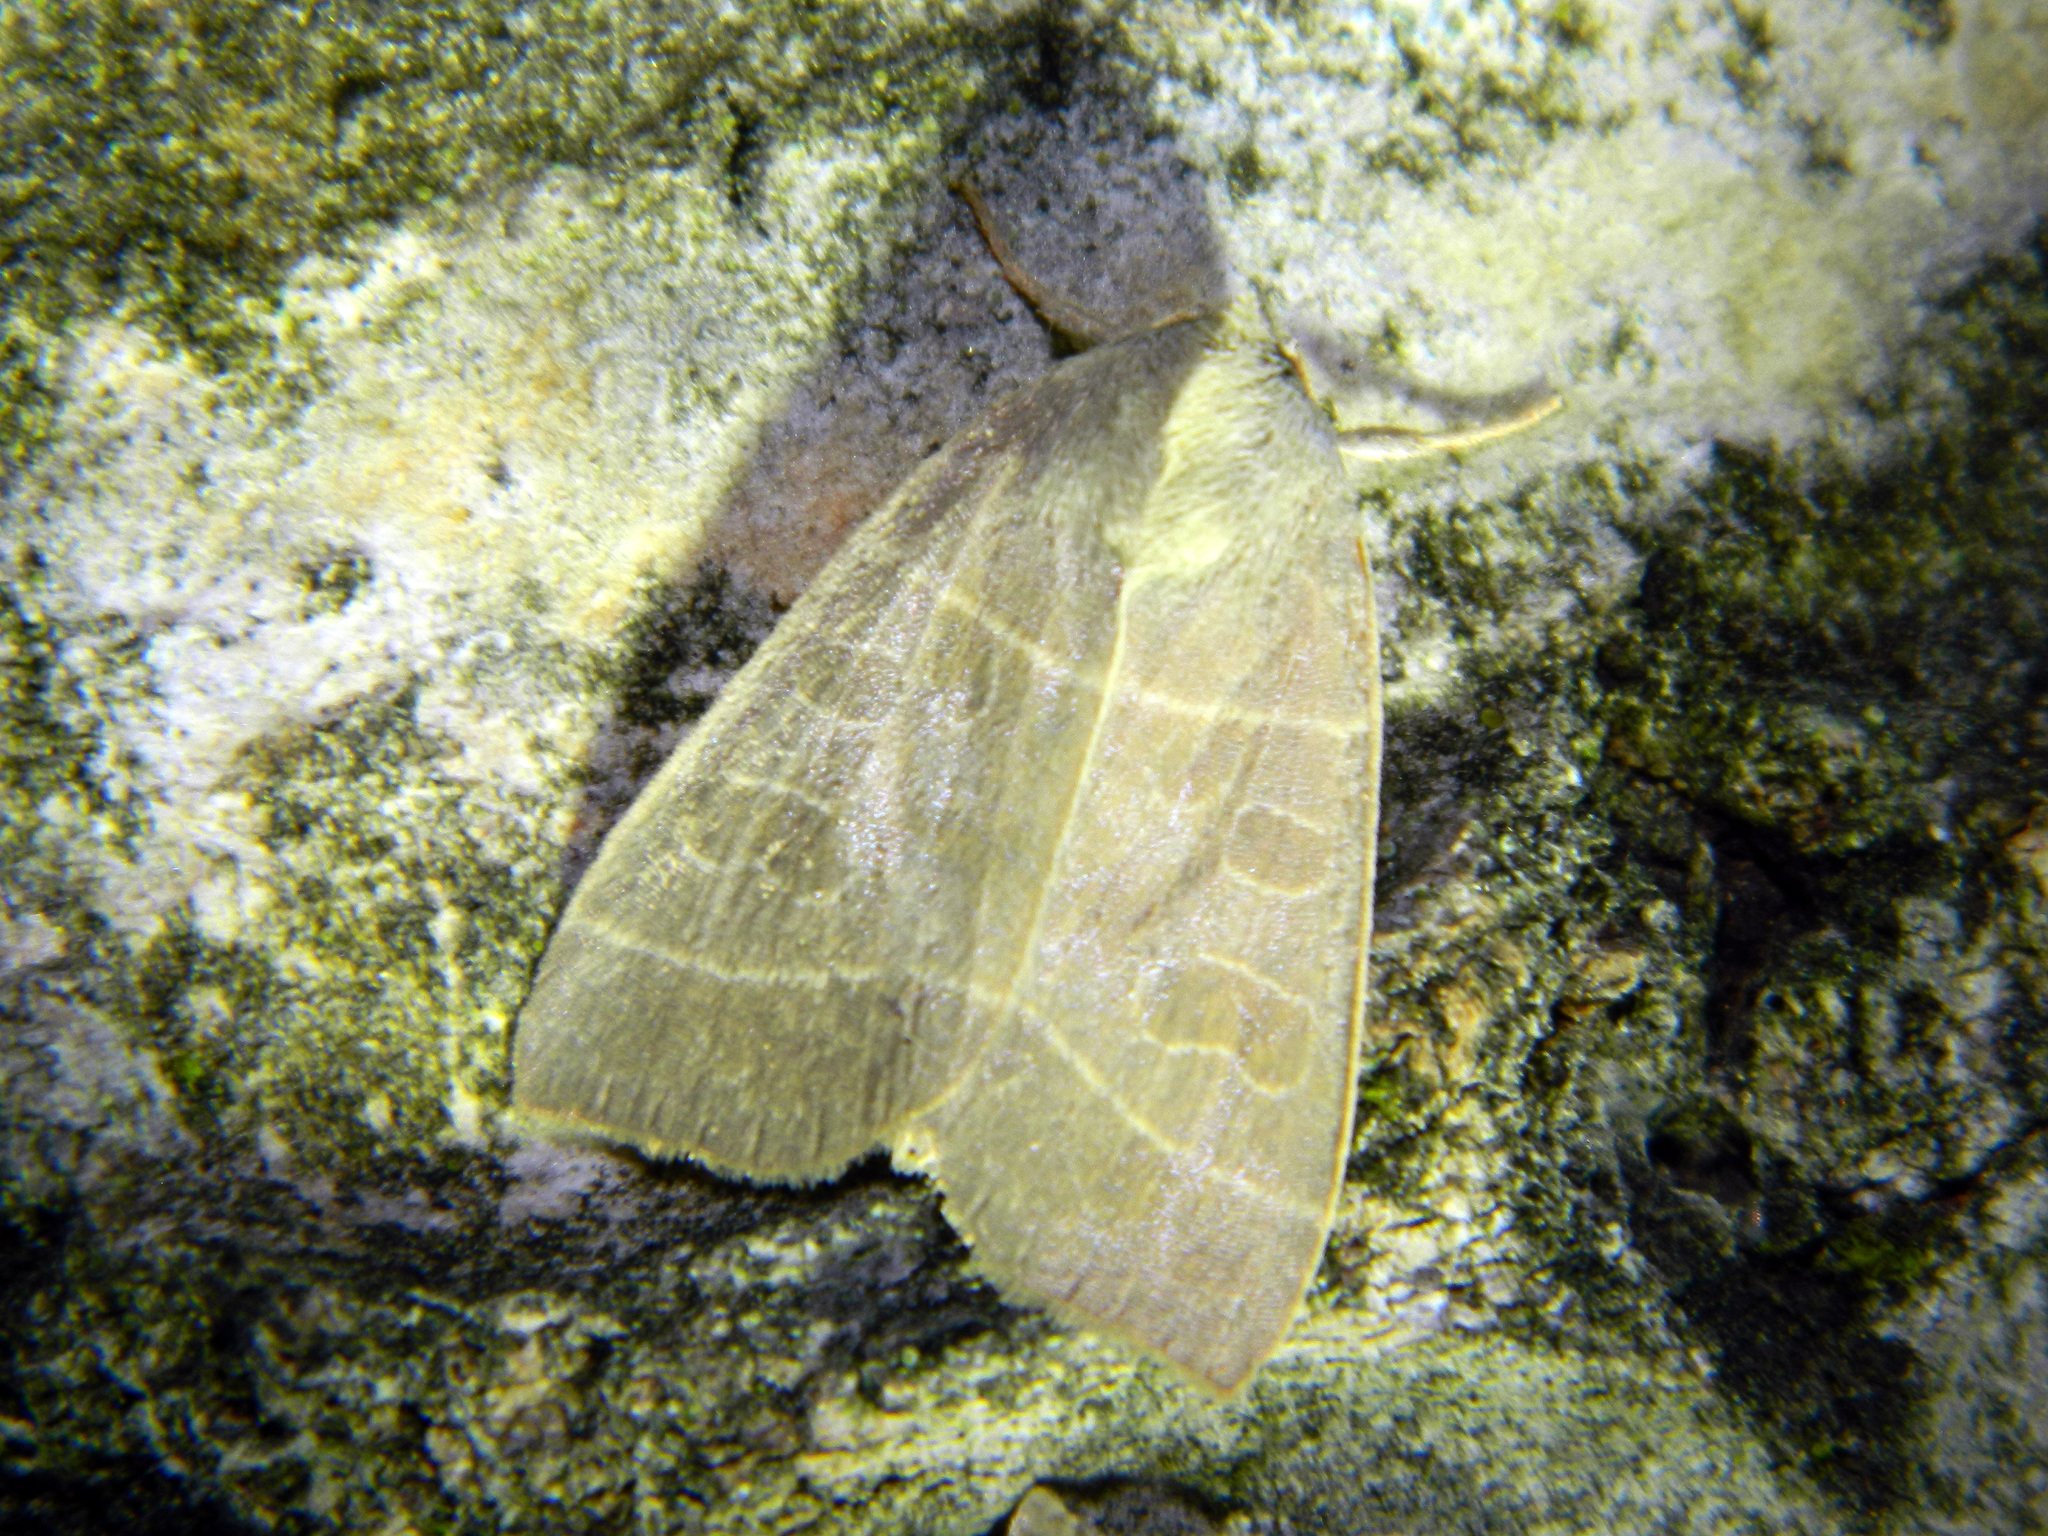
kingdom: Animalia
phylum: Arthropoda
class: Insecta
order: Lepidoptera
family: Noctuidae
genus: Ipimorpha
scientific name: Ipimorpha pleonectusa
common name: Even-lined sallow
